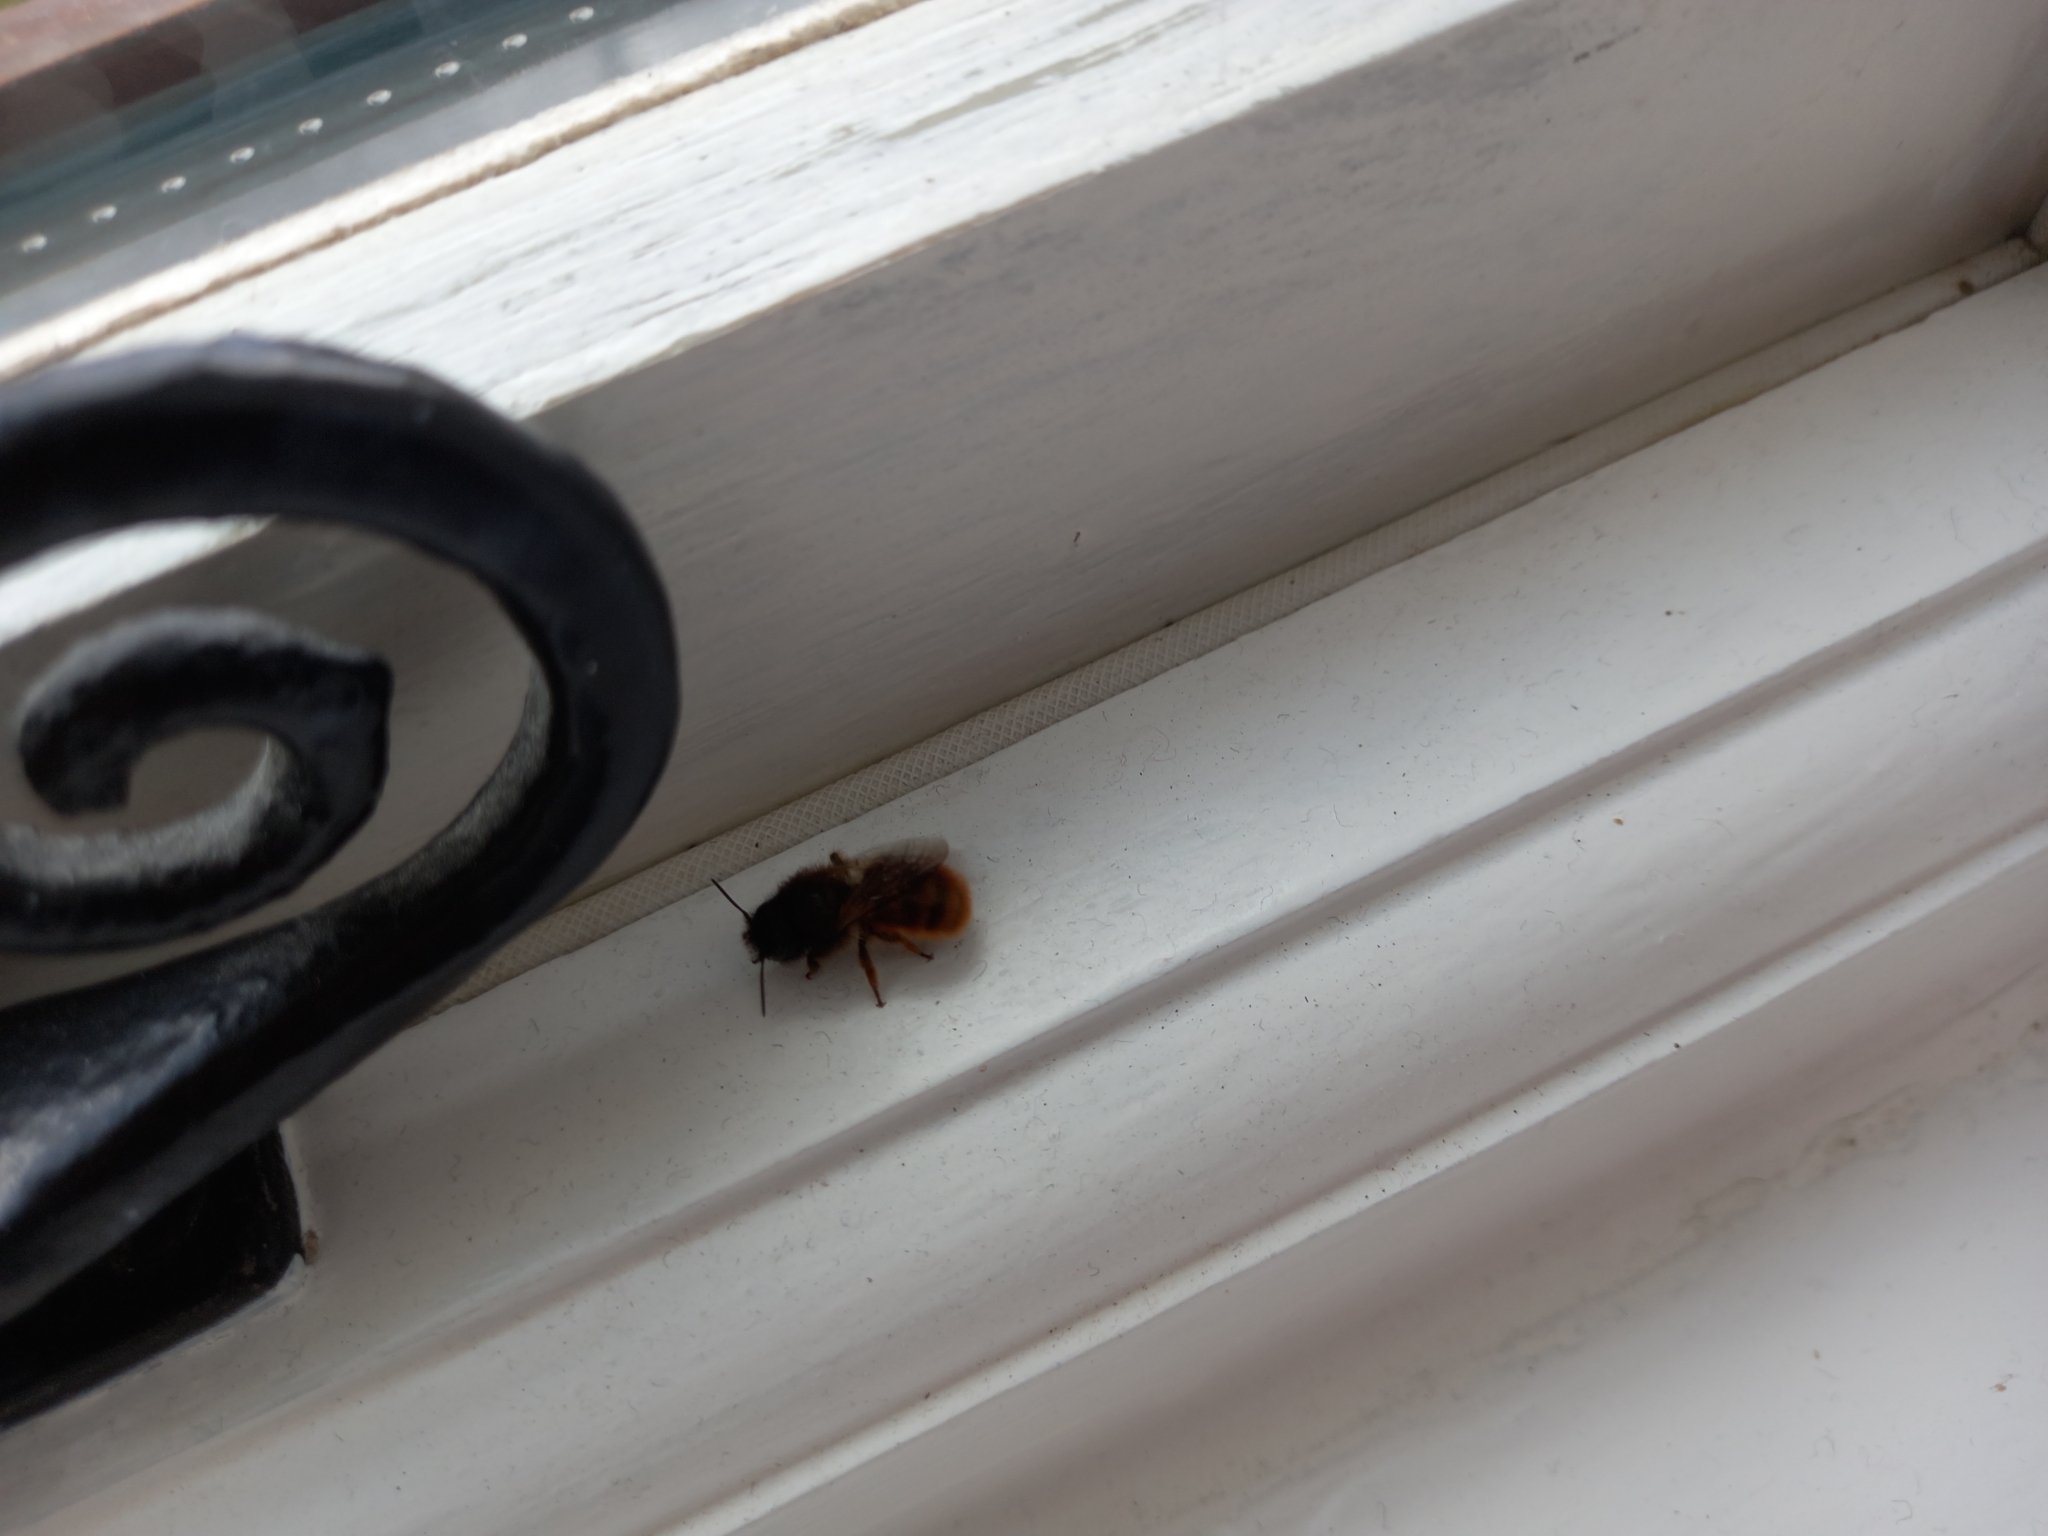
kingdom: Animalia
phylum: Arthropoda
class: Insecta
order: Hymenoptera
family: Megachilidae
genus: Osmia
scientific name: Osmia bicornis
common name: Red mason bee
